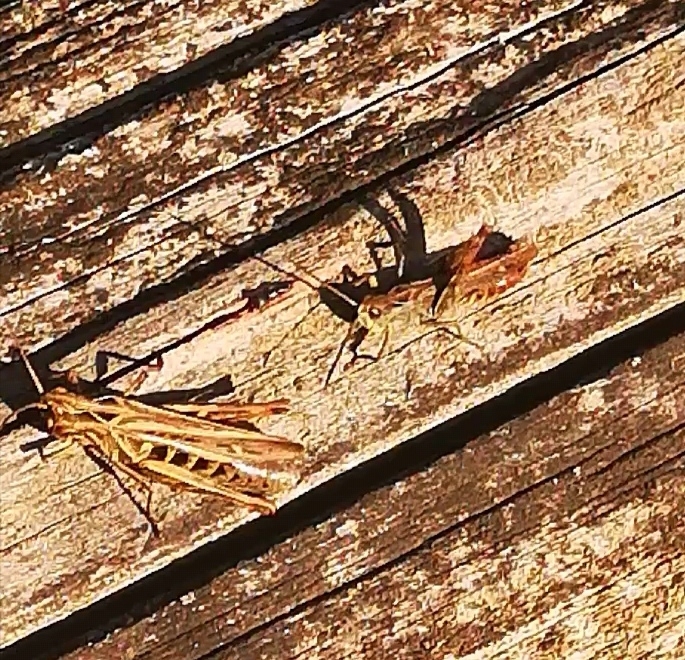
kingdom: Animalia
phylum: Arthropoda
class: Insecta
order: Orthoptera
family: Acrididae
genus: Chorthippus
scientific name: Chorthippus biguttulus
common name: Bow-winged grasshopper
